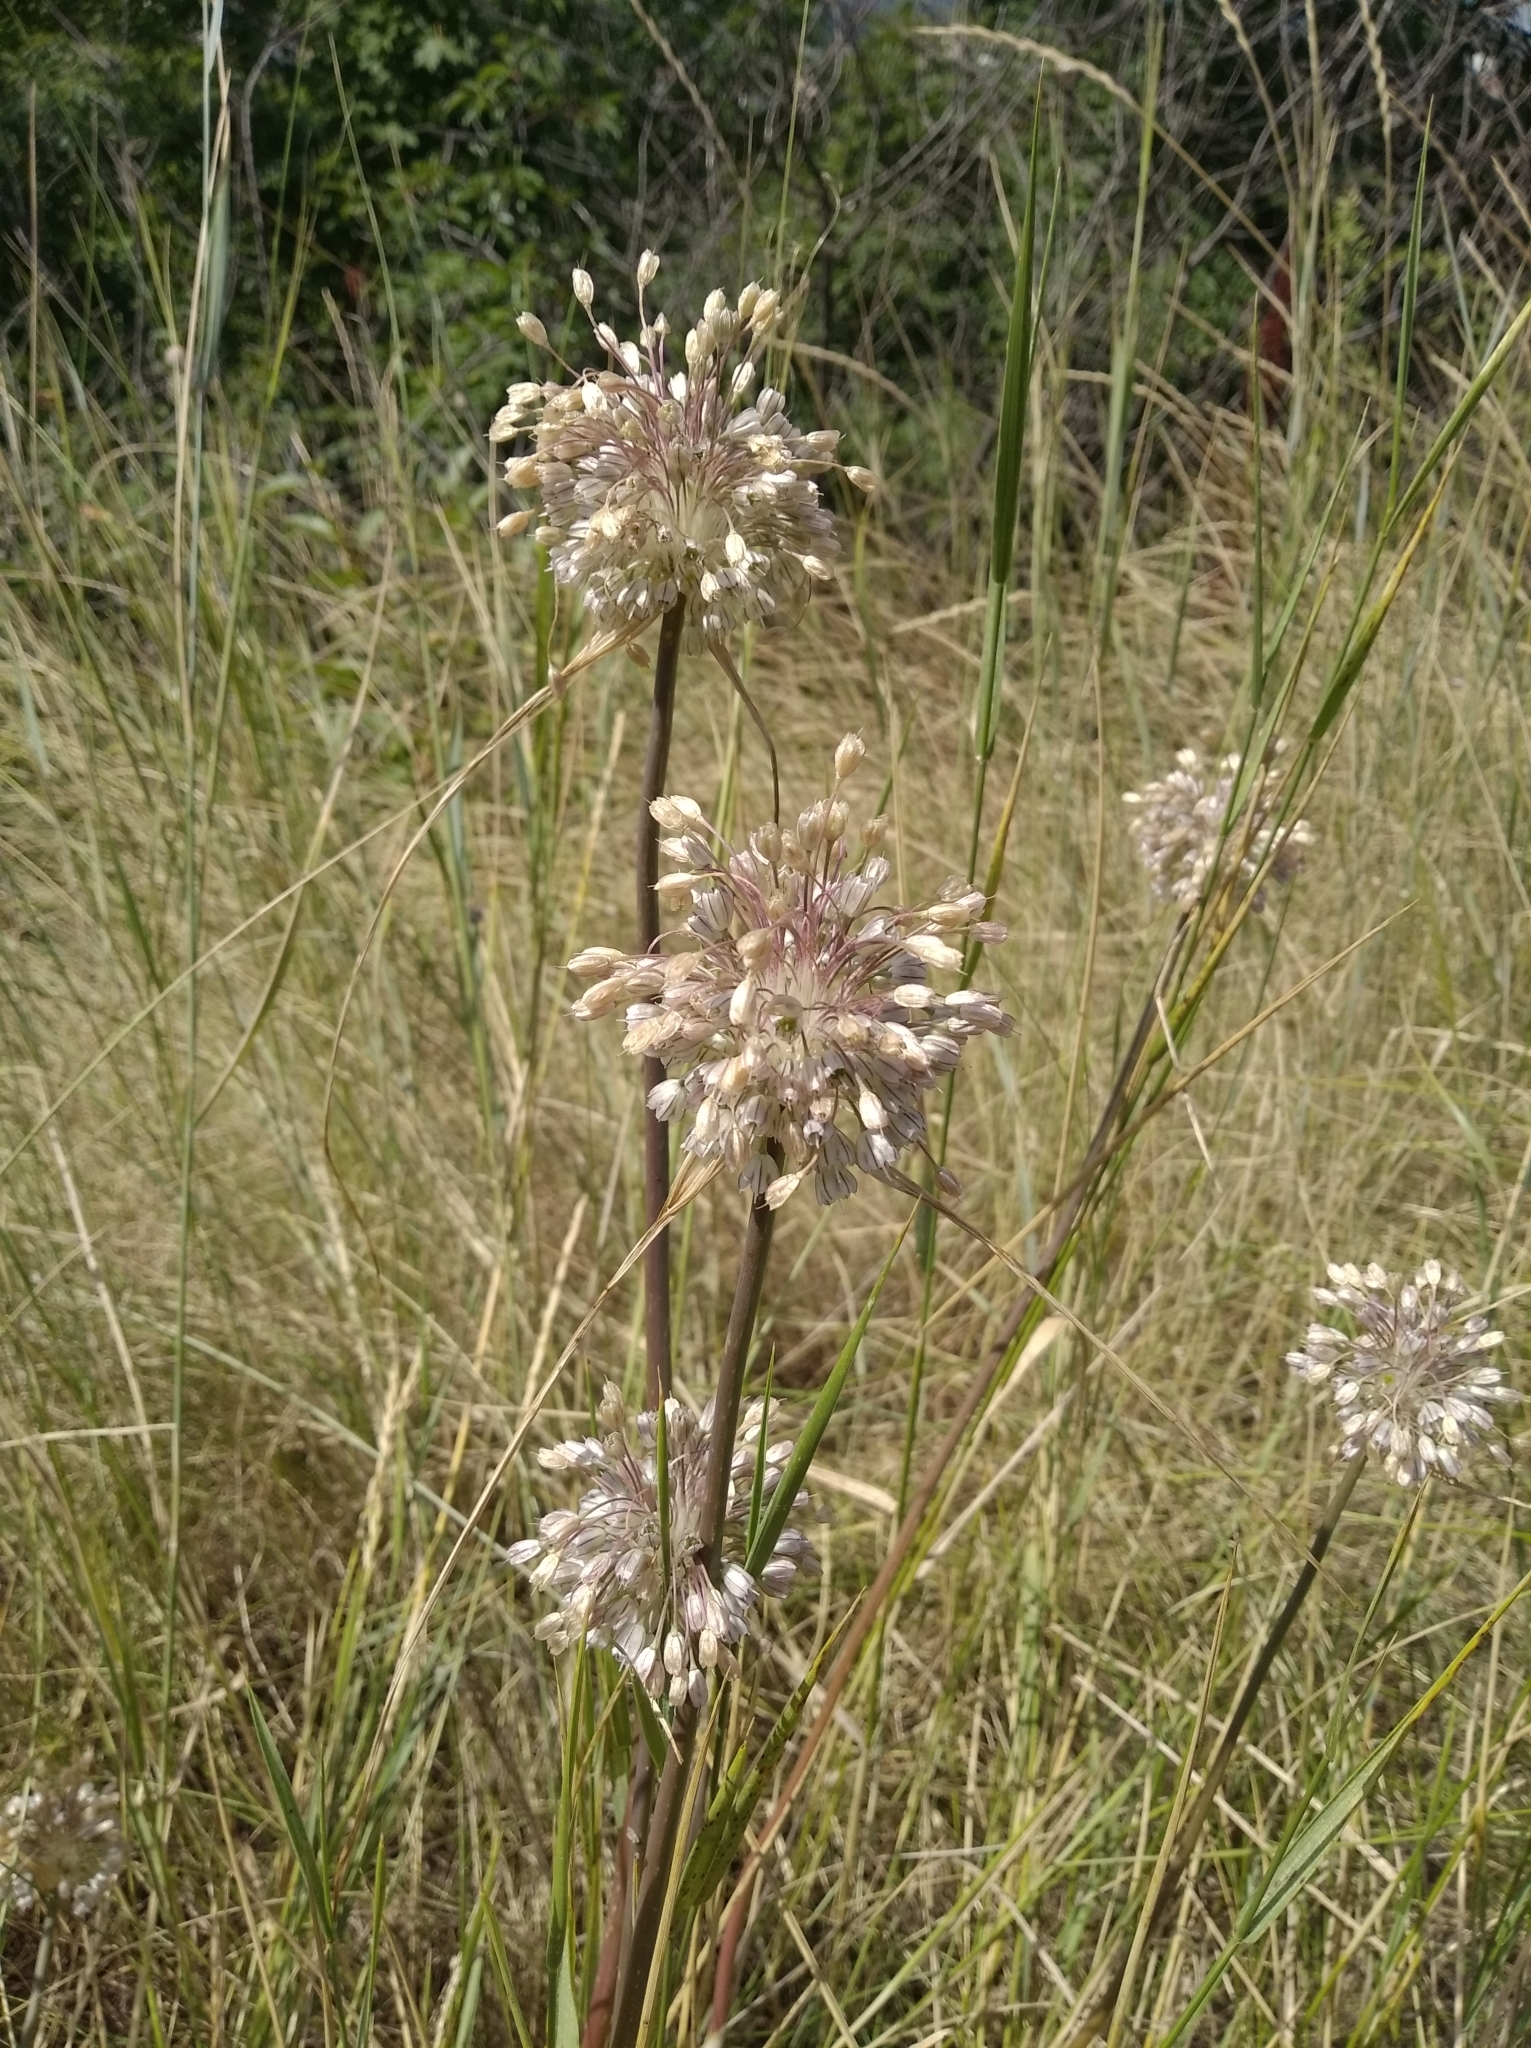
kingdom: Plantae
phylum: Tracheophyta
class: Liliopsida
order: Asparagales
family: Amaryllidaceae
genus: Allium
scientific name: Allium paniculatum
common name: Pale garlic
